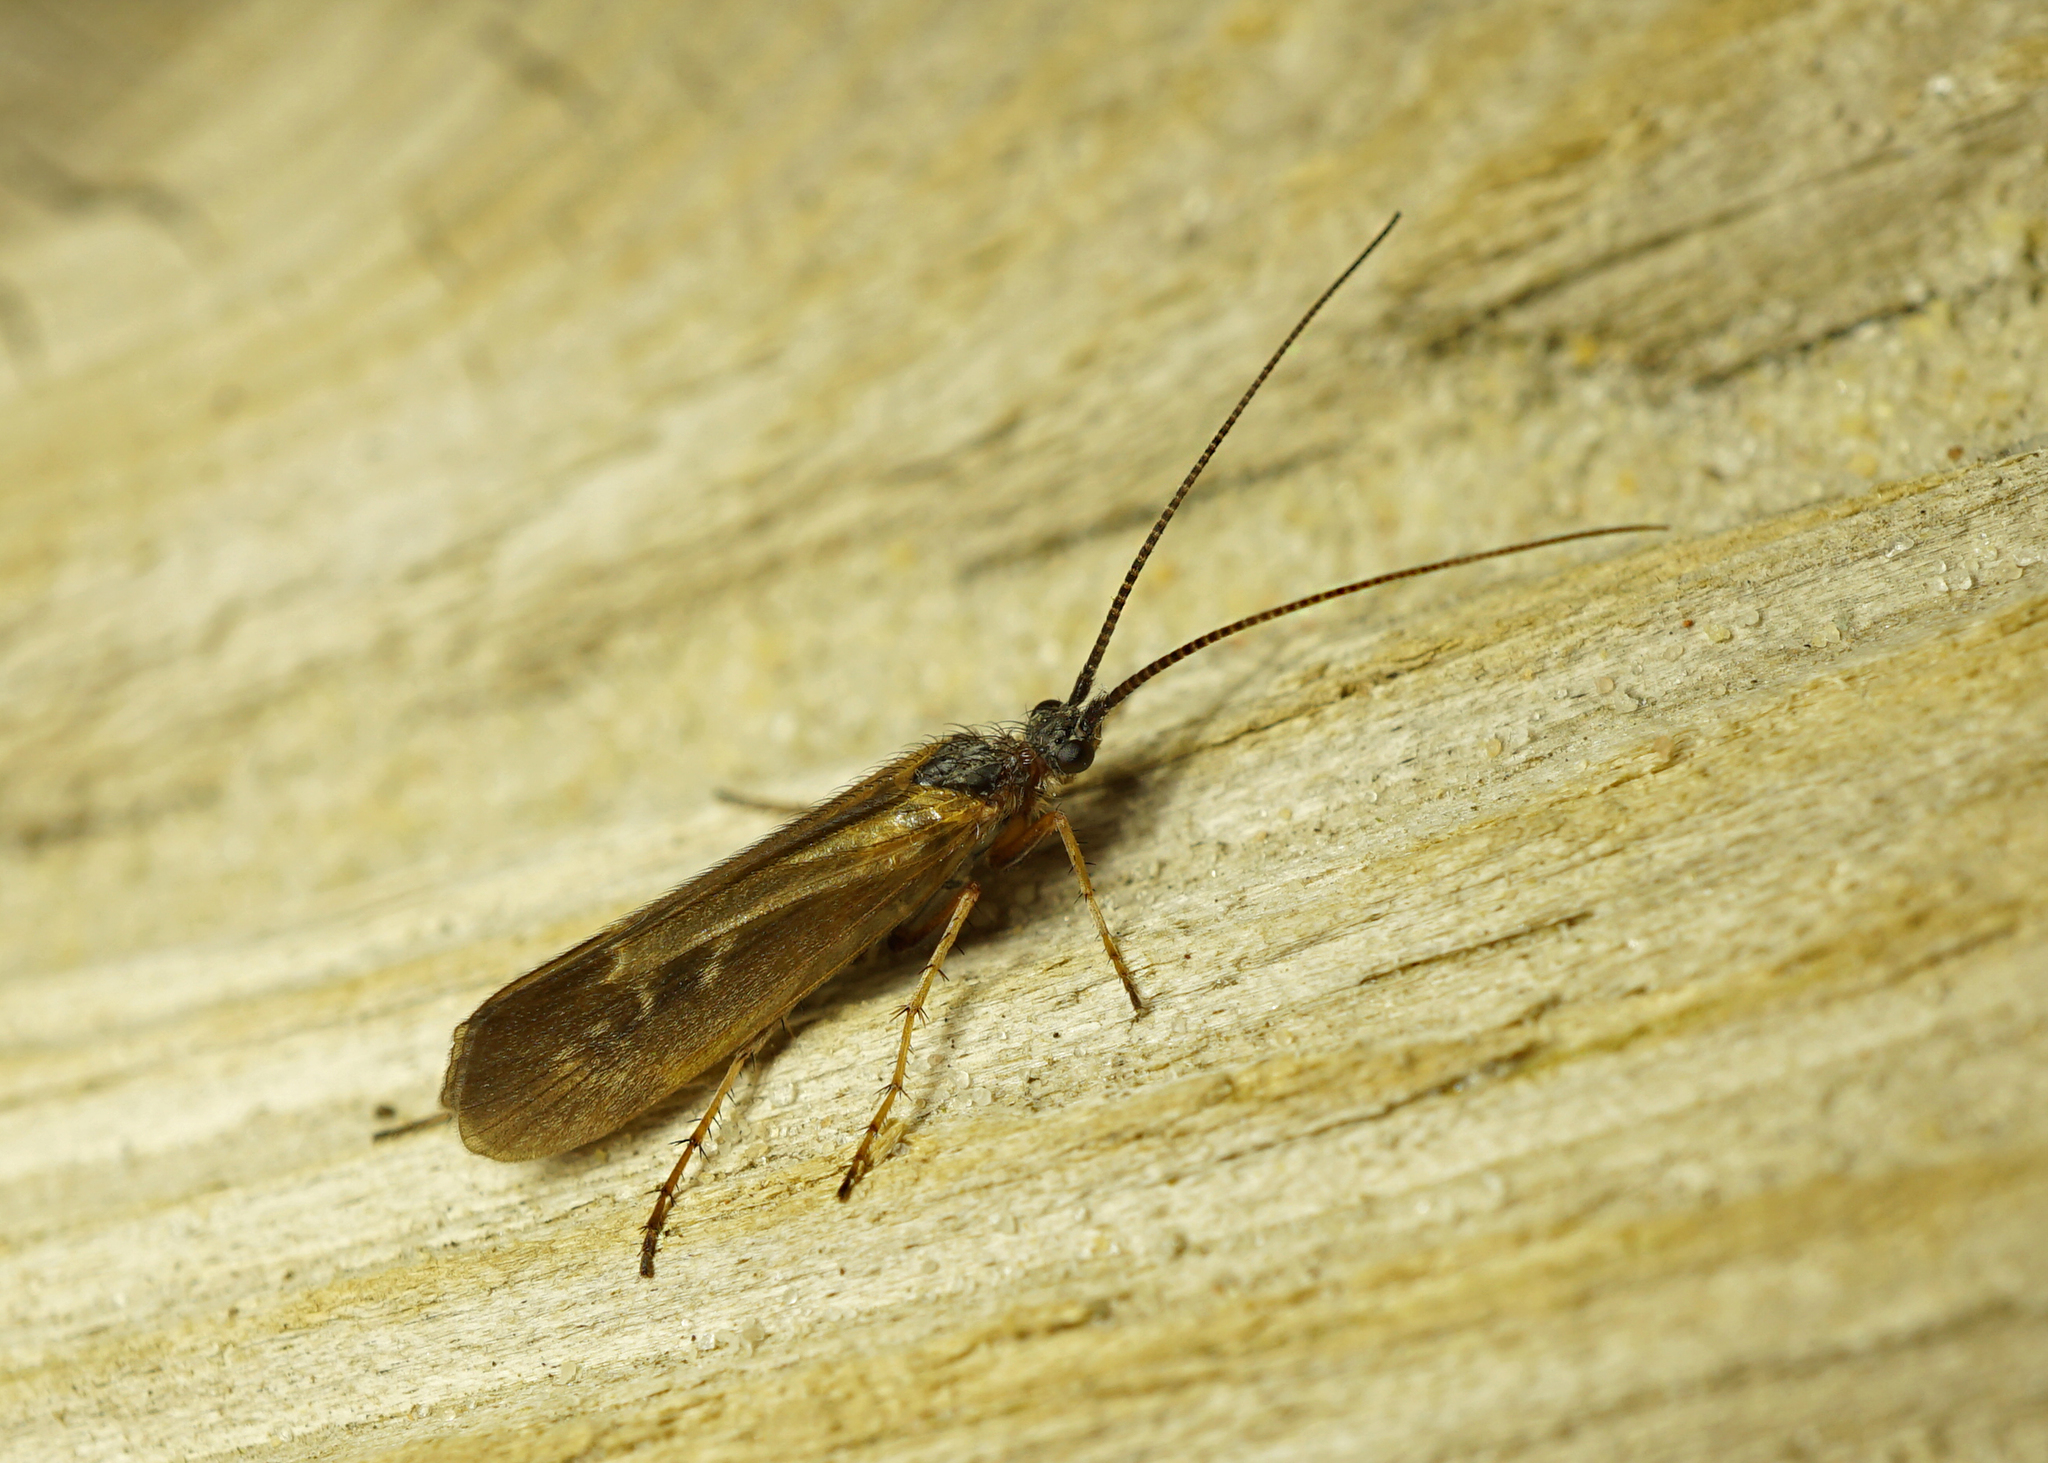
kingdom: Animalia
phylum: Arthropoda
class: Insecta
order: Trichoptera
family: Limnephilidae
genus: Limnephilus
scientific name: Limnephilus auricula
